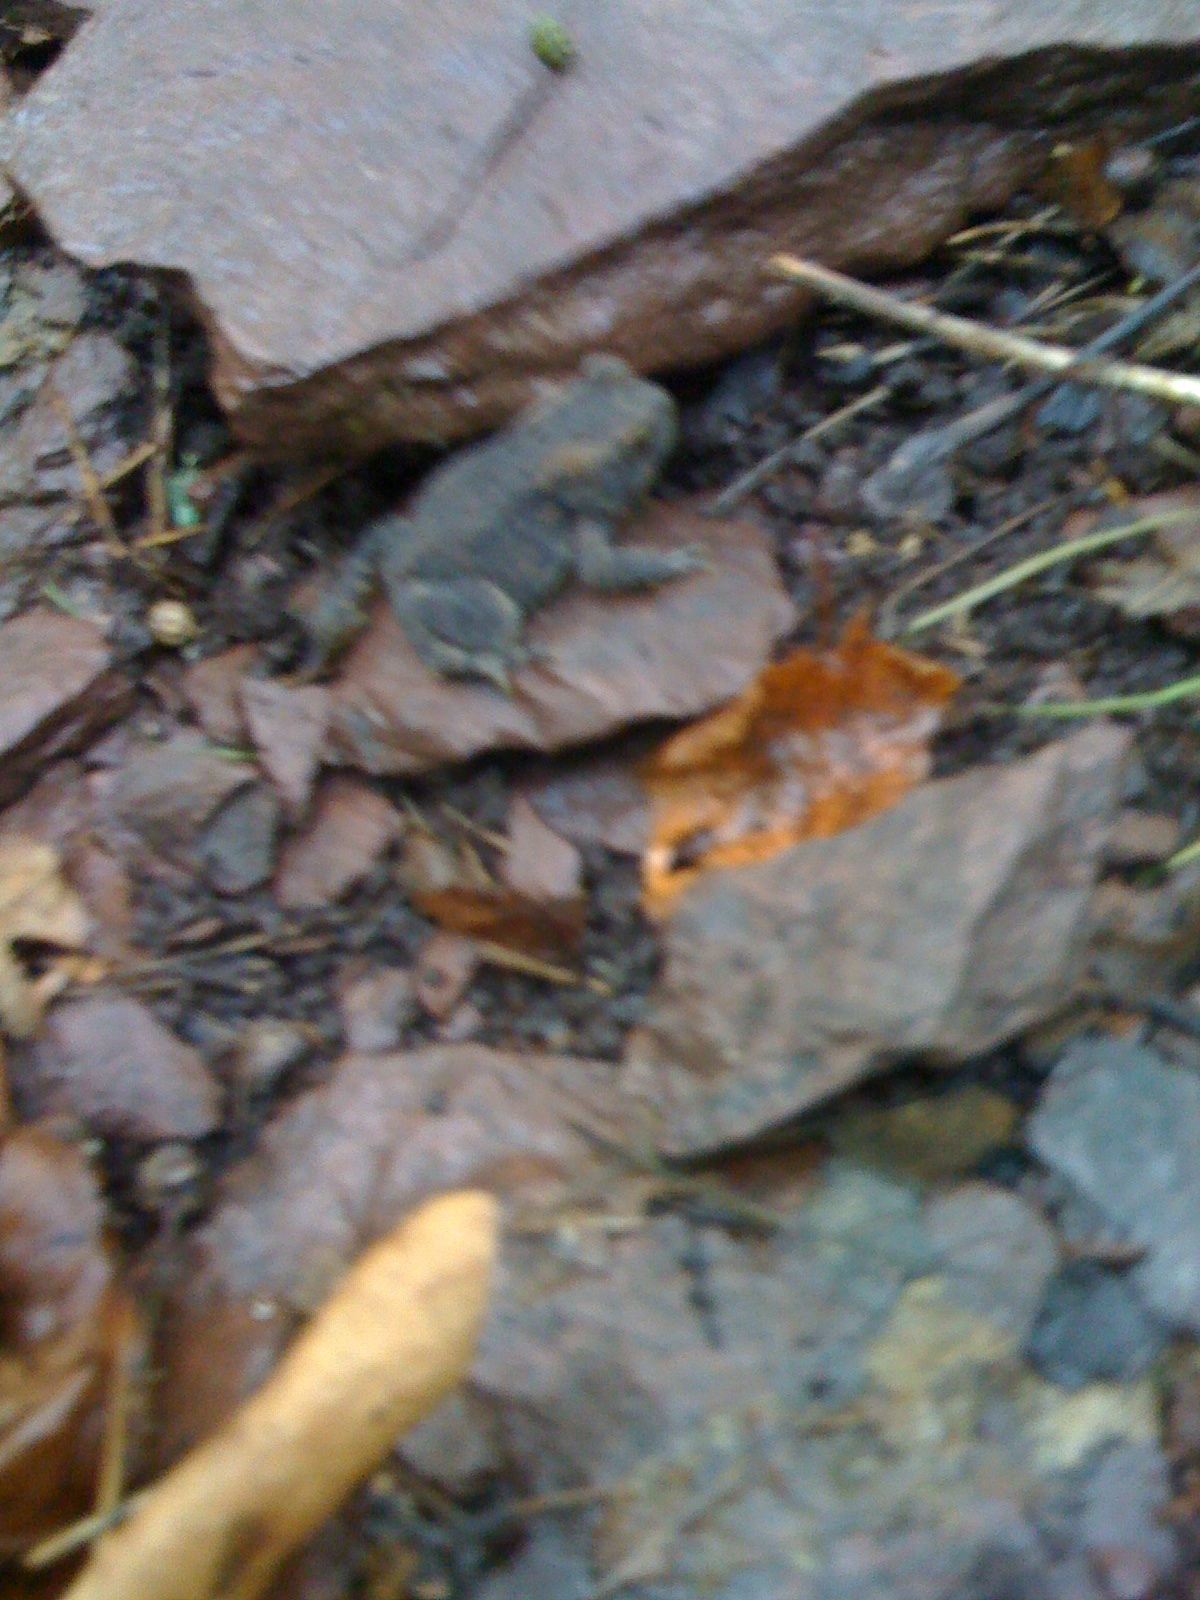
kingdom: Animalia
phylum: Chordata
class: Amphibia
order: Anura
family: Bufonidae
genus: Anaxyrus
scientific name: Anaxyrus americanus
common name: American toad
